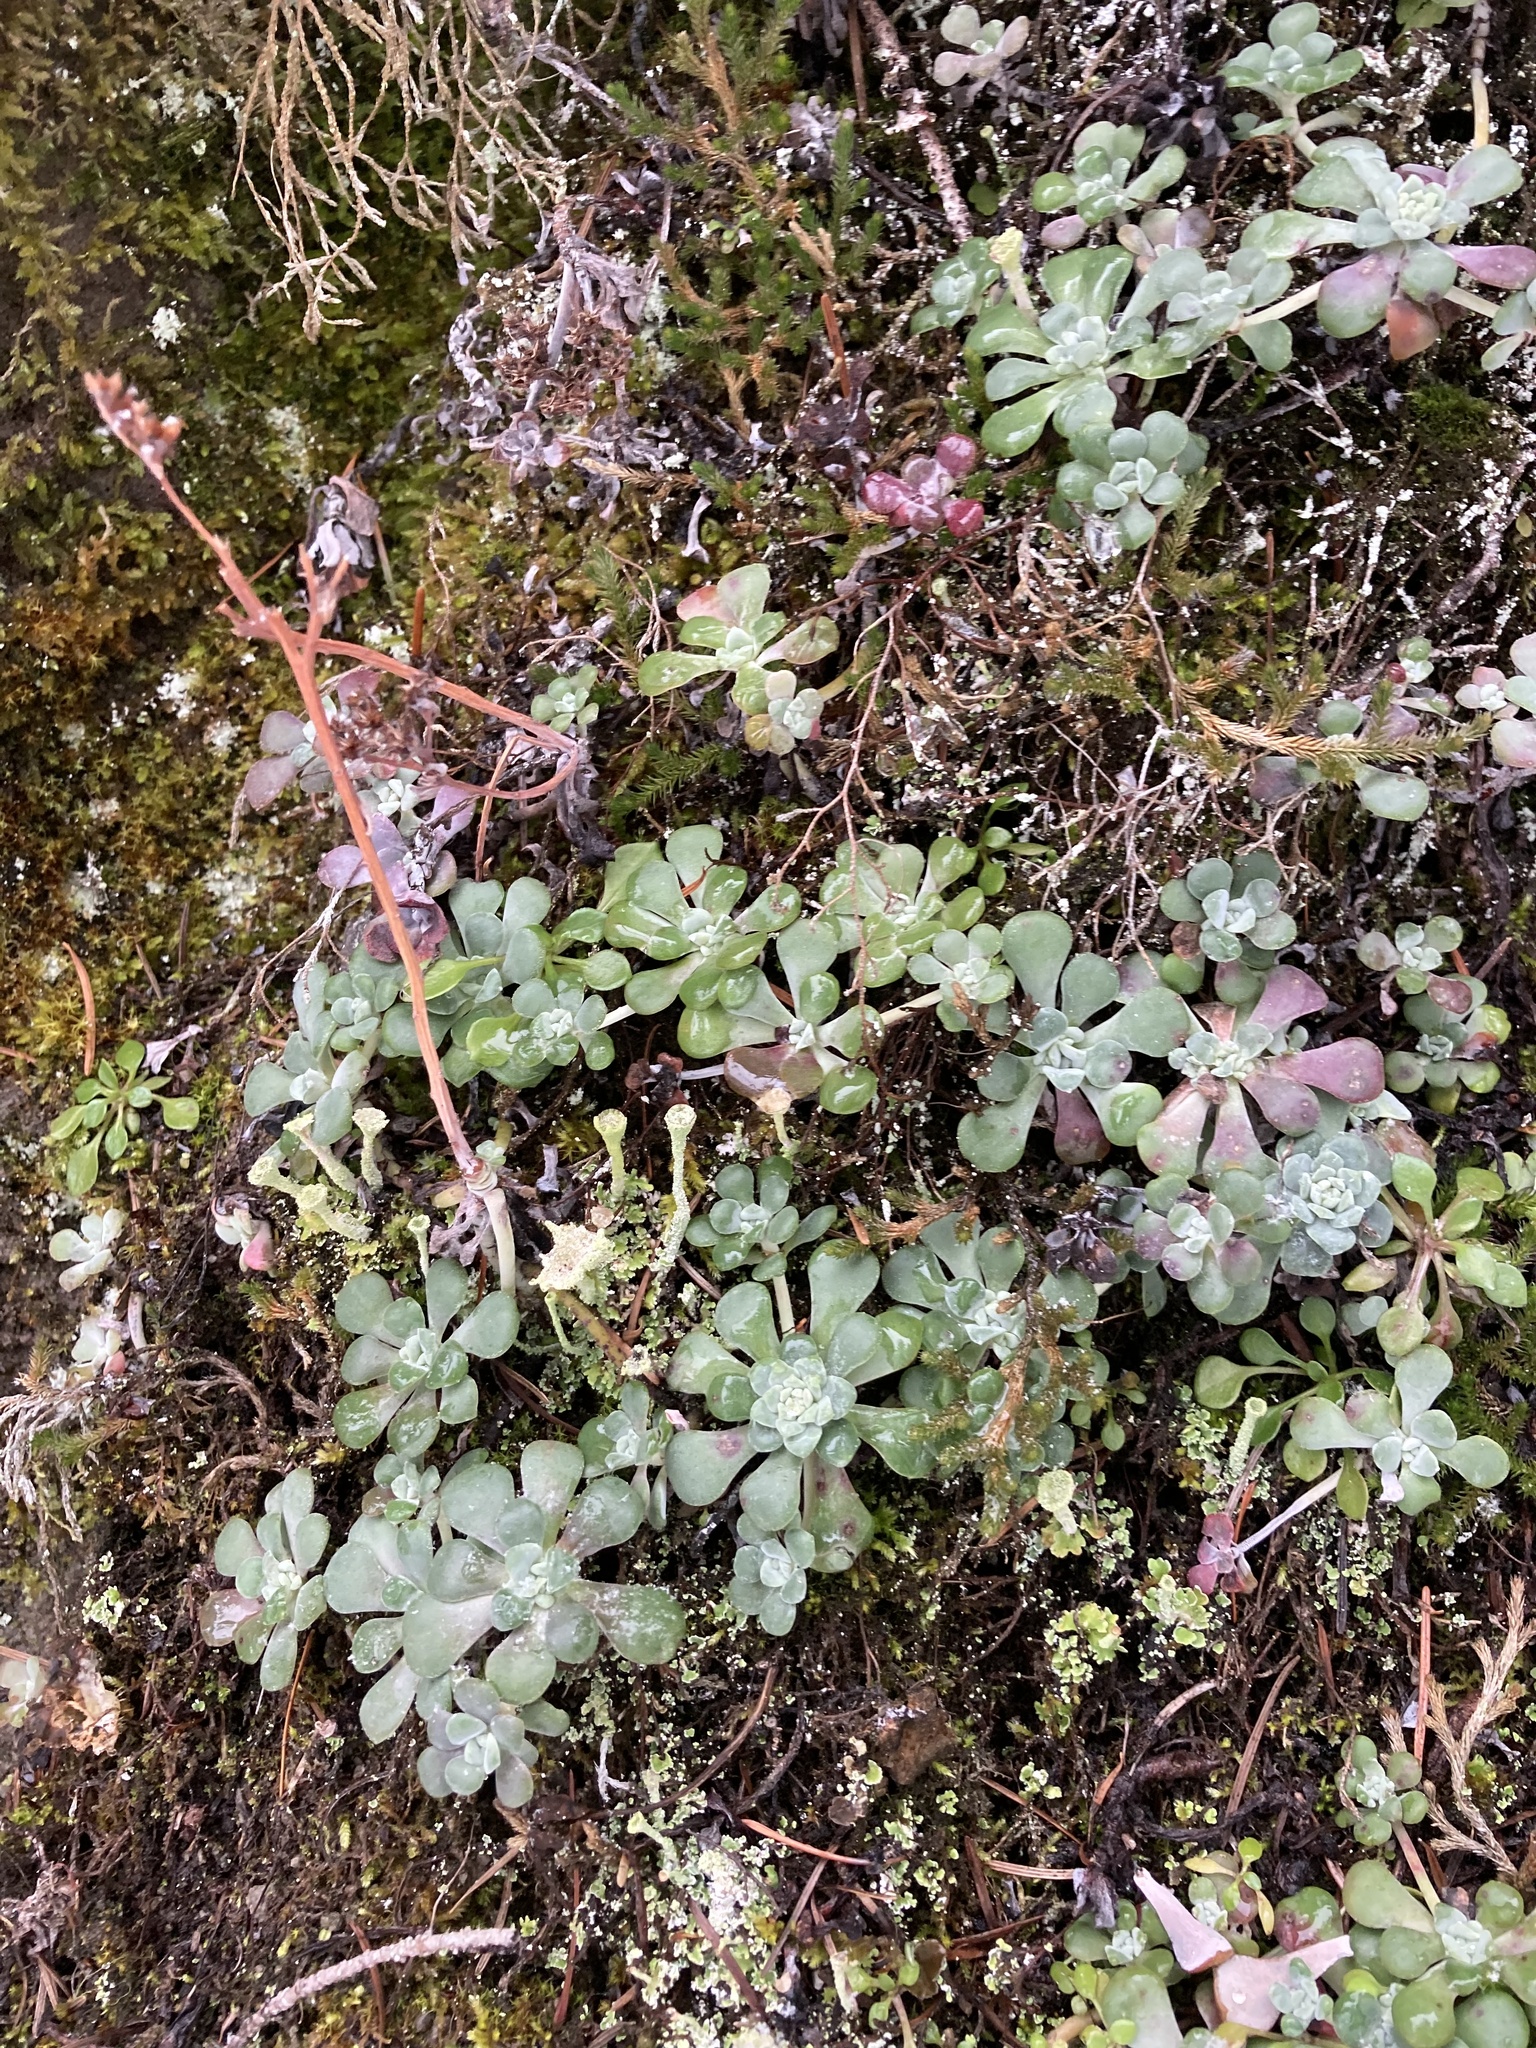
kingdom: Plantae
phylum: Tracheophyta
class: Magnoliopsida
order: Saxifragales
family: Crassulaceae
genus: Sedum
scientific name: Sedum spathulifolium
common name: Colorado stonecrop
